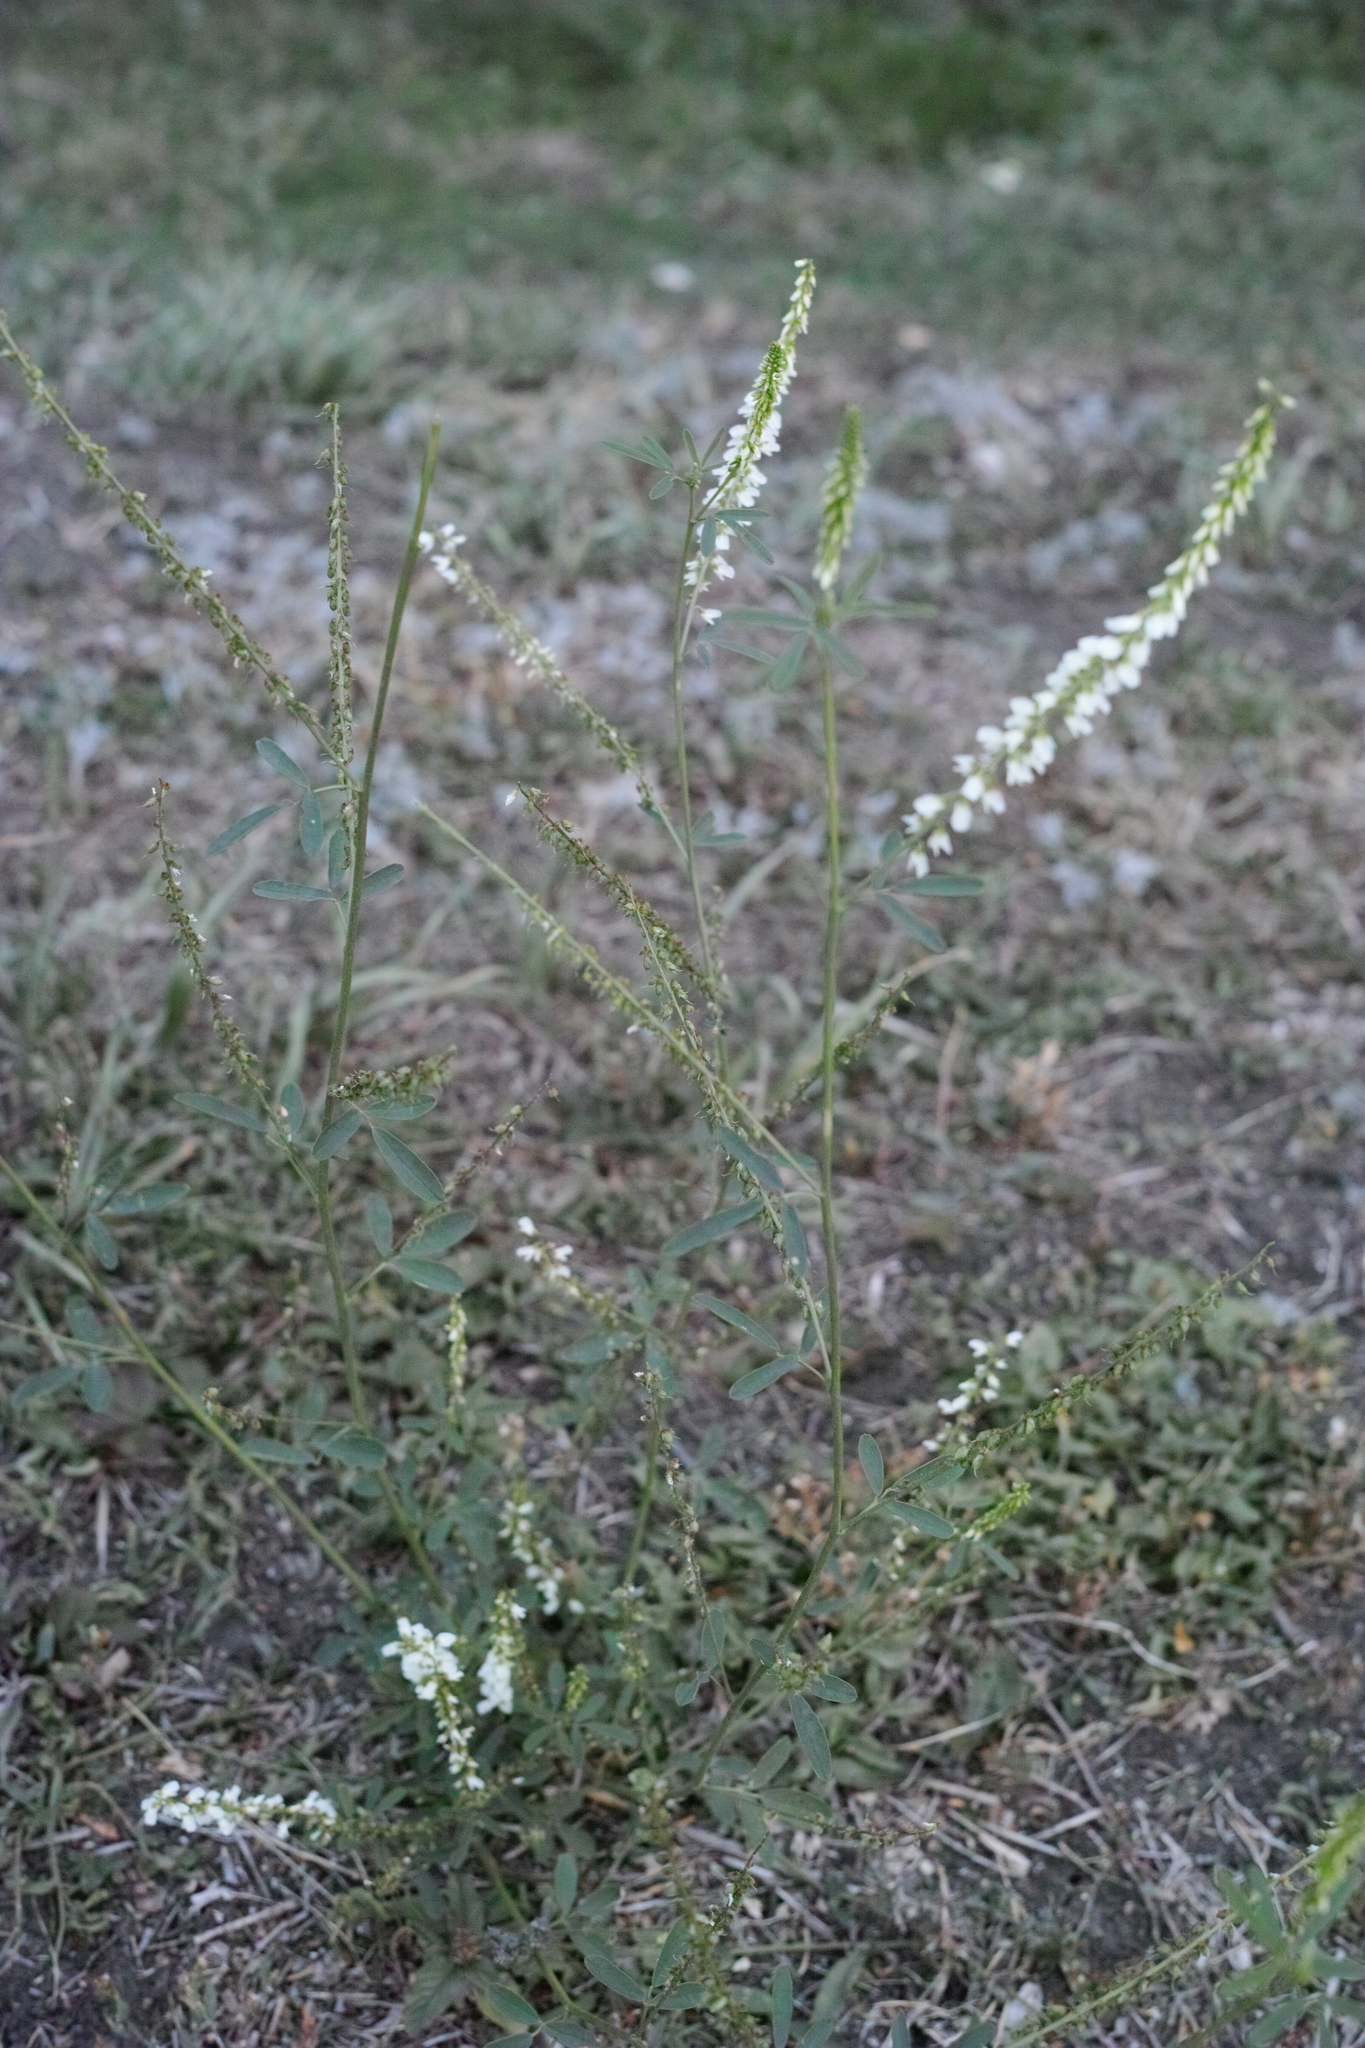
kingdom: Plantae
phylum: Tracheophyta
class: Magnoliopsida
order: Fabales
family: Fabaceae
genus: Melilotus
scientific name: Melilotus albus
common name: White melilot
